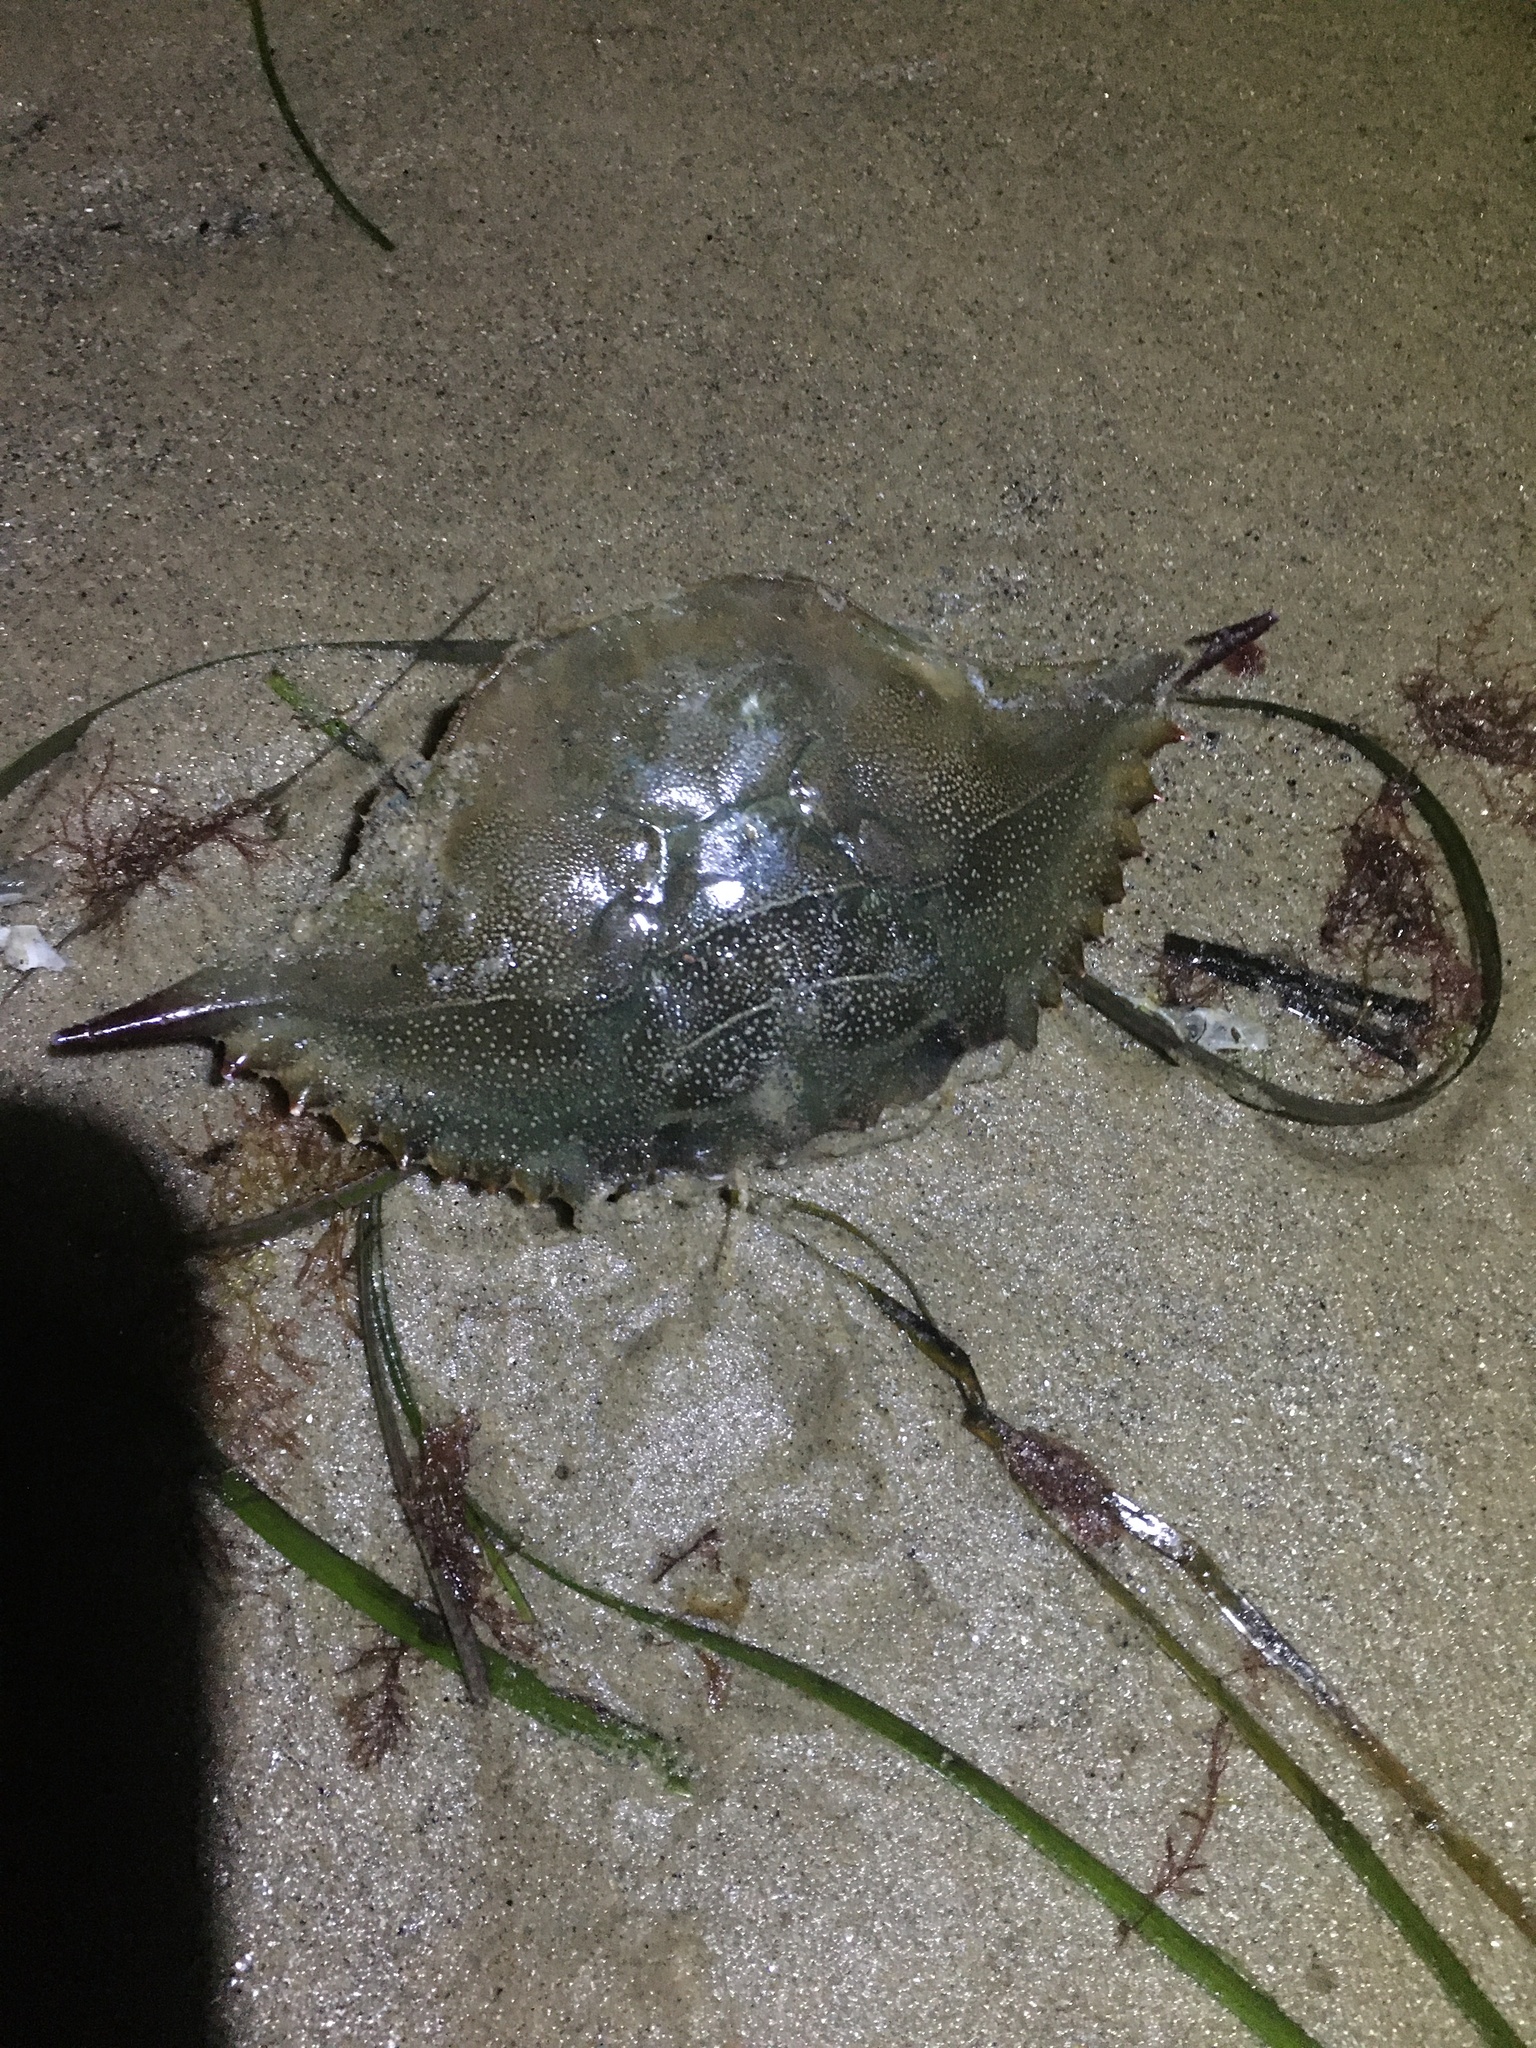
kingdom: Animalia
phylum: Arthropoda
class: Malacostraca
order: Decapoda
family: Portunidae
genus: Callinectes
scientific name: Callinectes sapidus
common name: Blue crab
